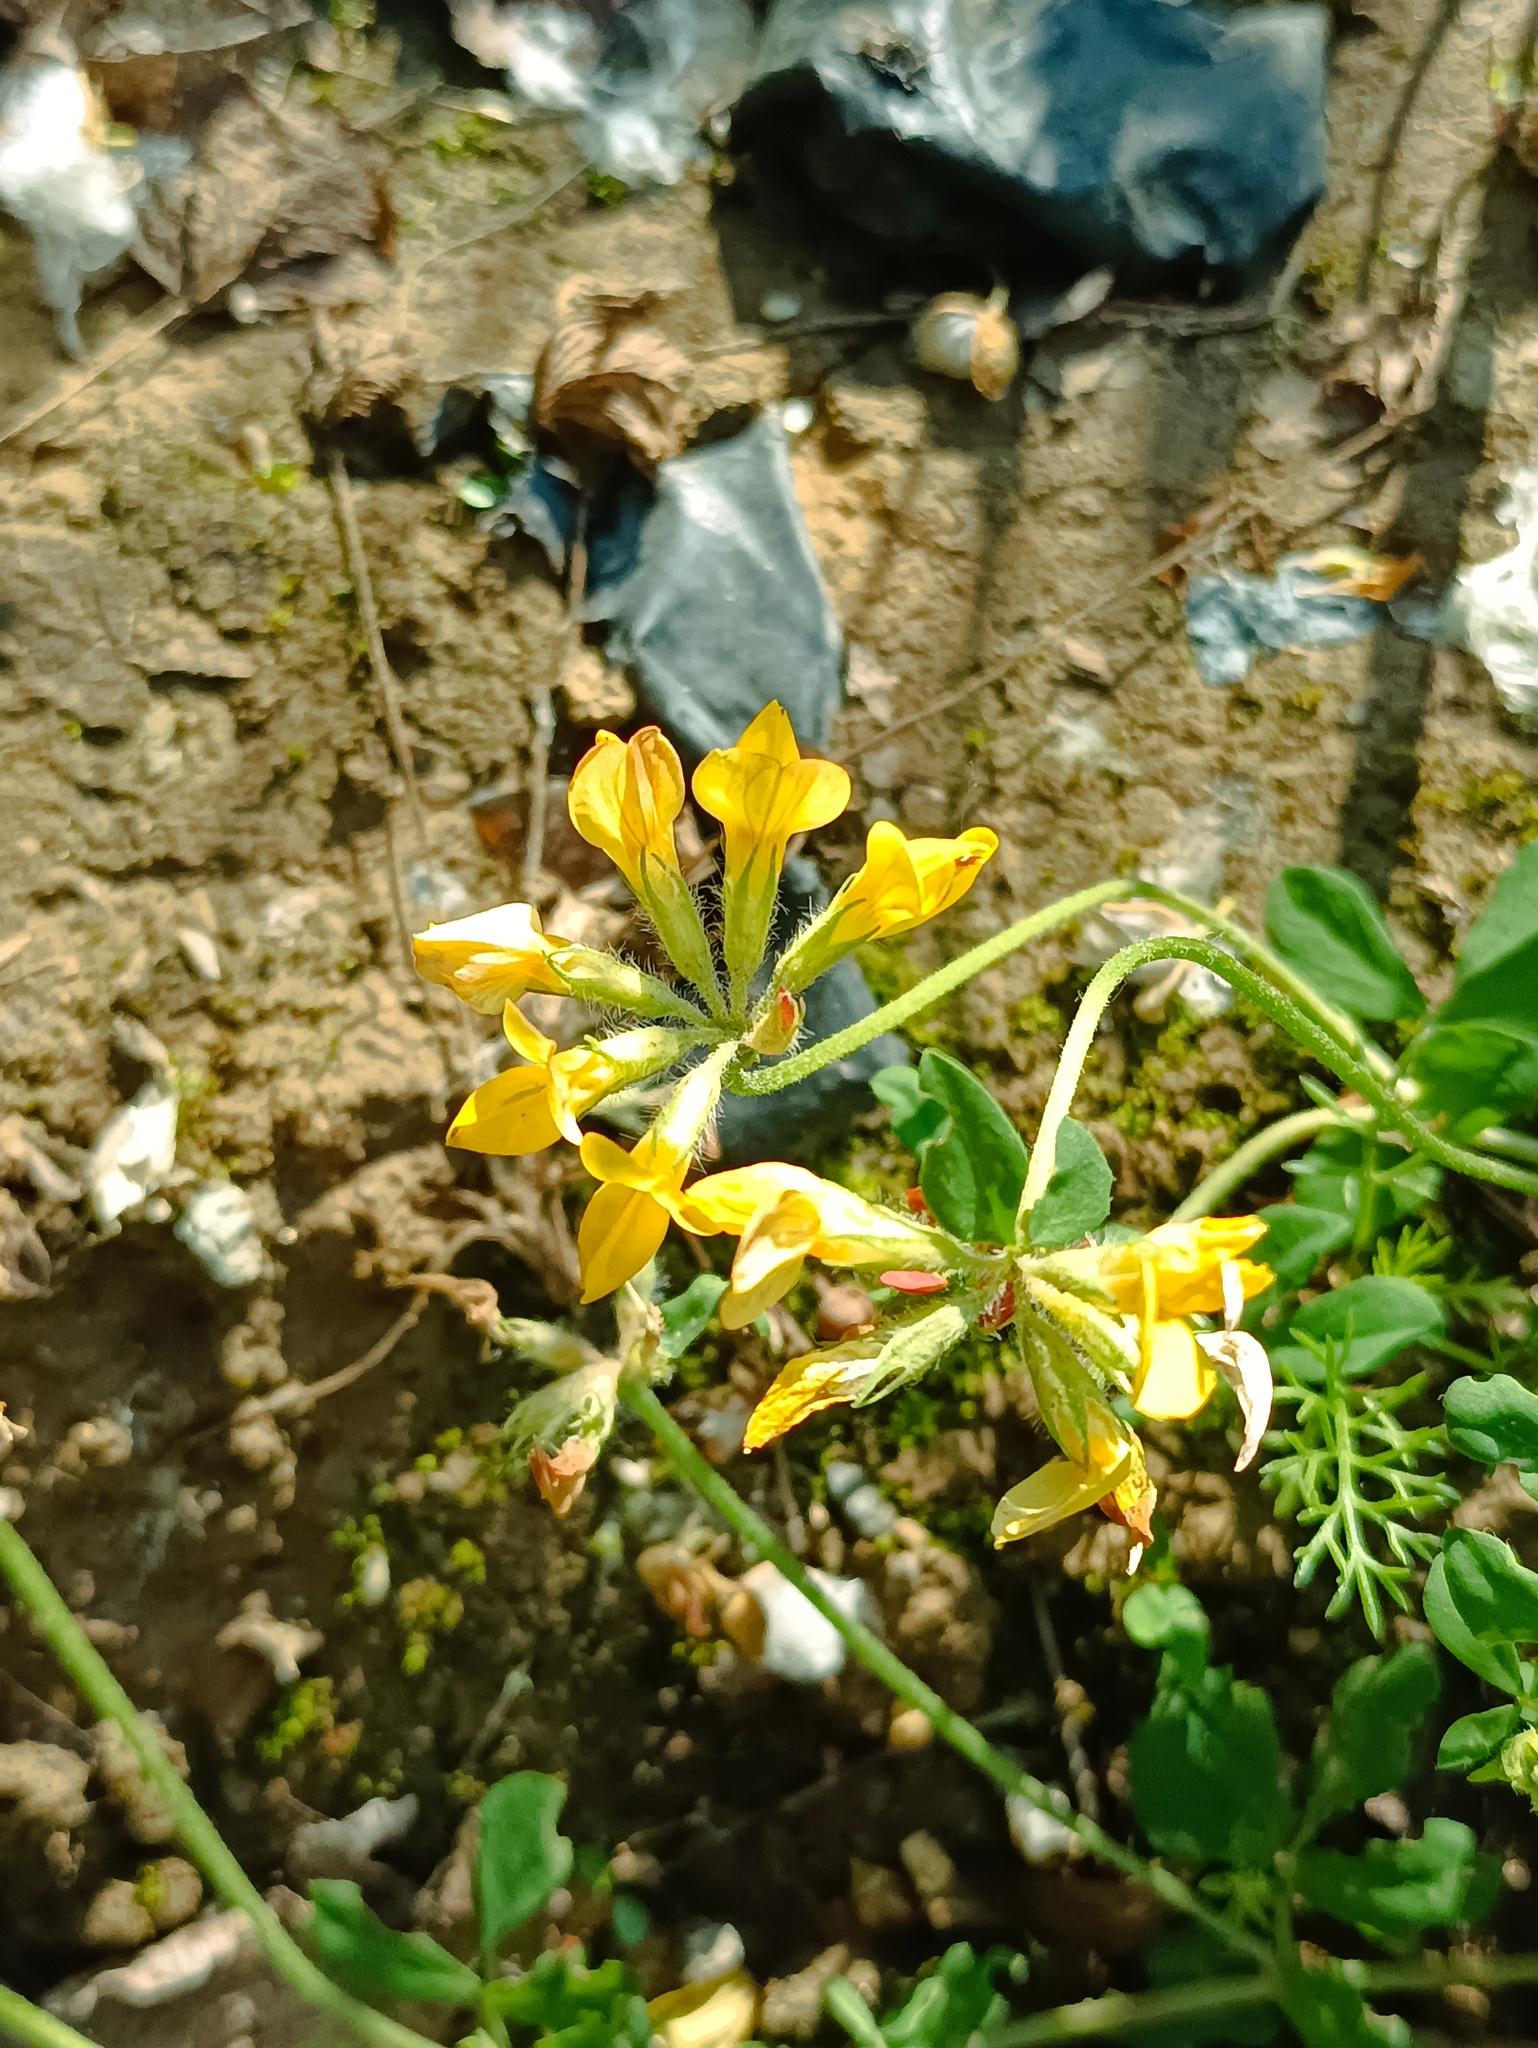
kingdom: Plantae
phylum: Tracheophyta
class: Magnoliopsida
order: Fabales
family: Fabaceae
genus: Lotus
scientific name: Lotus corniculatus
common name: Common bird's-foot-trefoil
